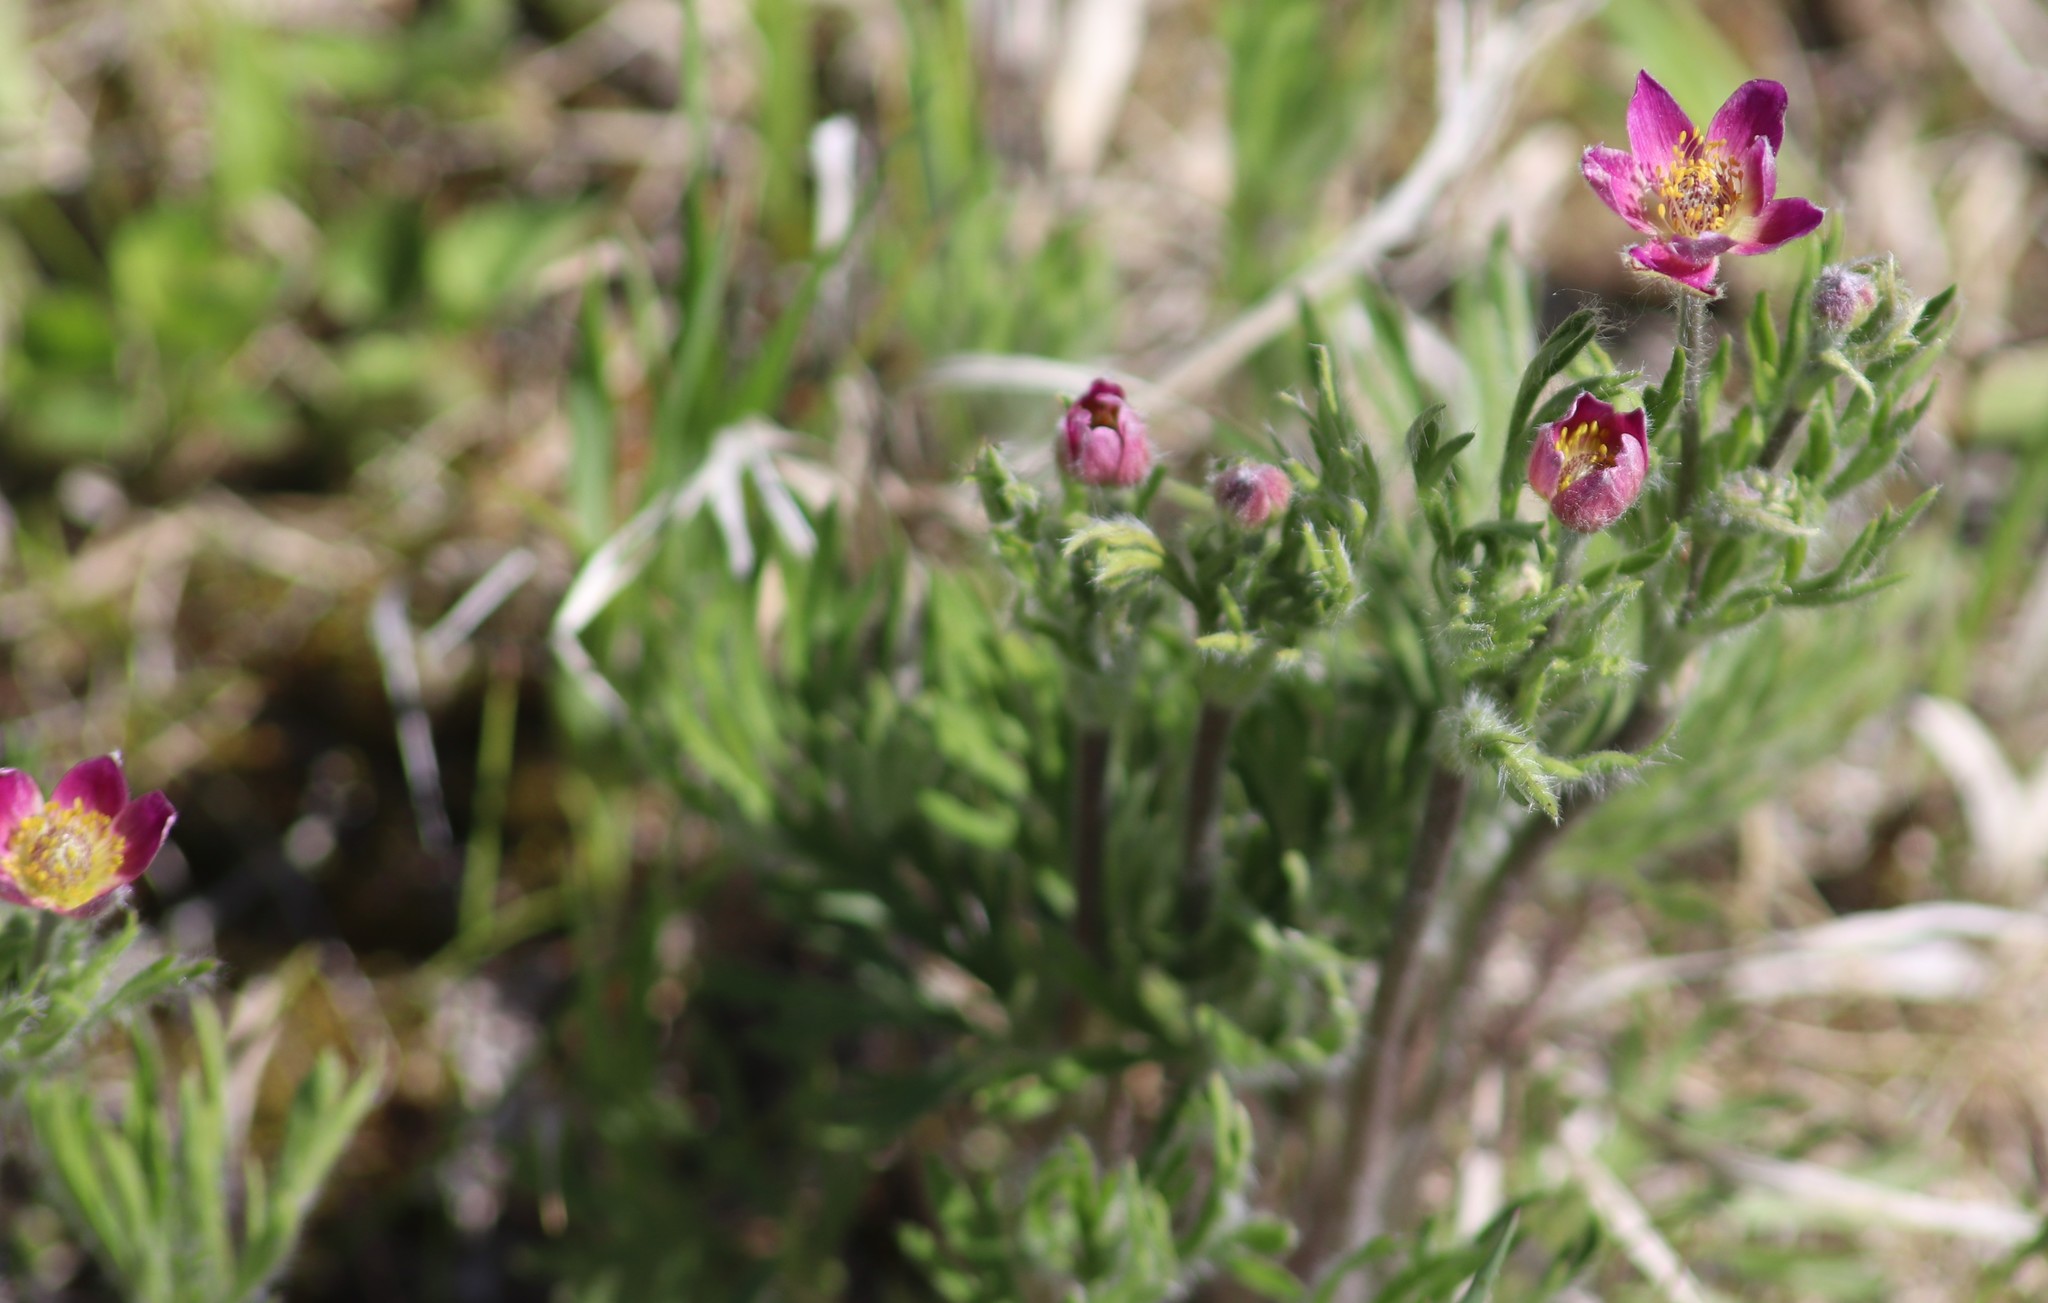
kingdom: Plantae
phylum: Tracheophyta
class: Magnoliopsida
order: Ranunculales
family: Ranunculaceae
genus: Anemone
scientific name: Anemone multifida
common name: Bird's-foot anemone
